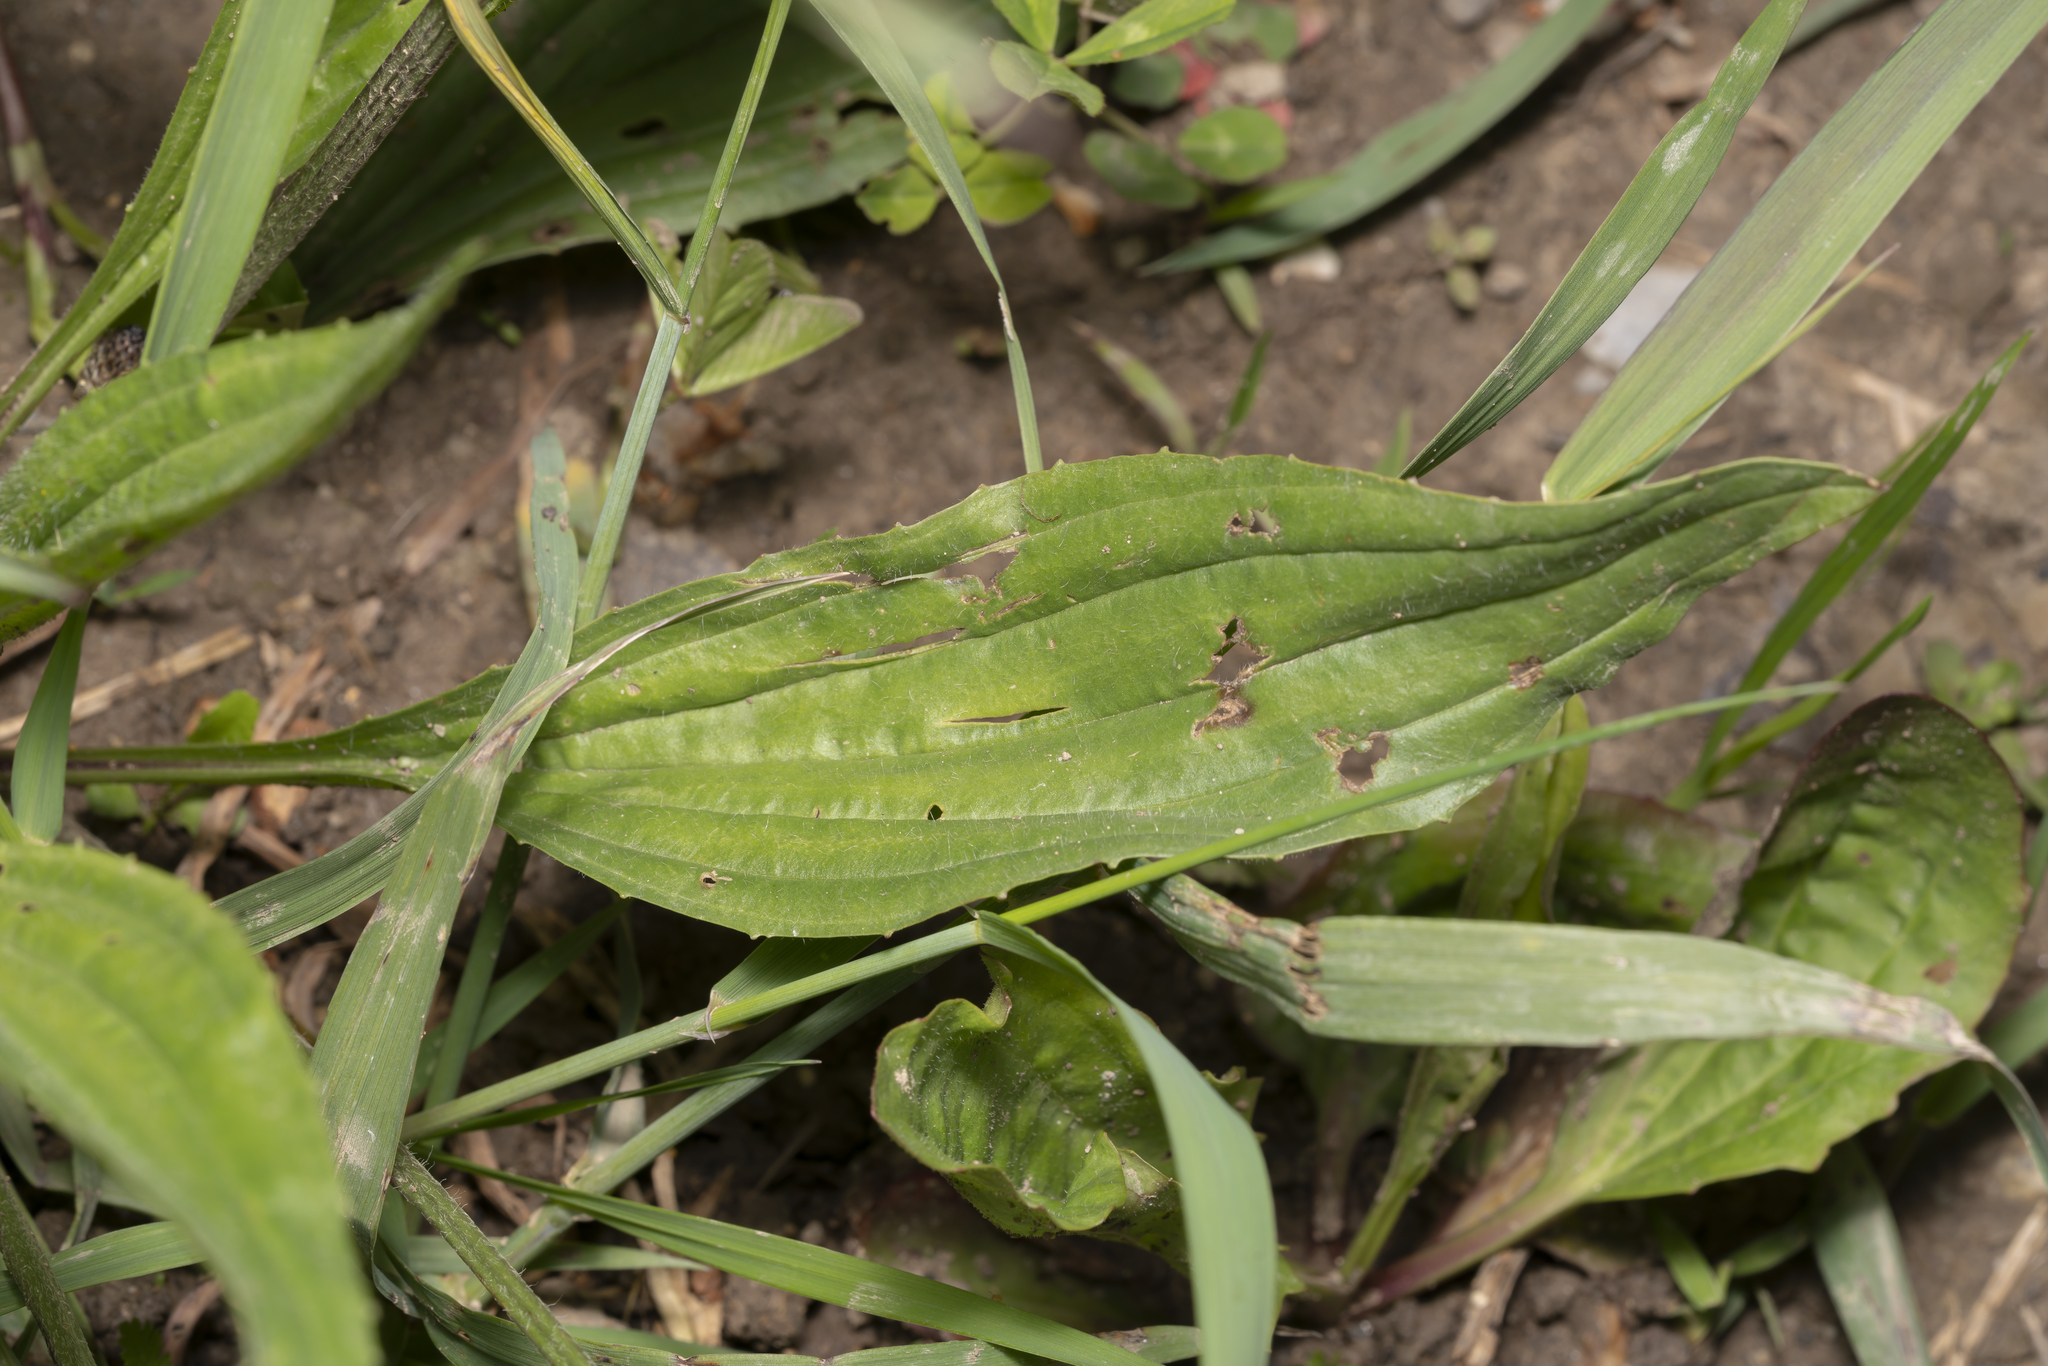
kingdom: Plantae
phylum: Tracheophyta
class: Magnoliopsida
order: Lamiales
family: Plantaginaceae
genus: Plantago
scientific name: Plantago lanceolata
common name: Ribwort plantain
